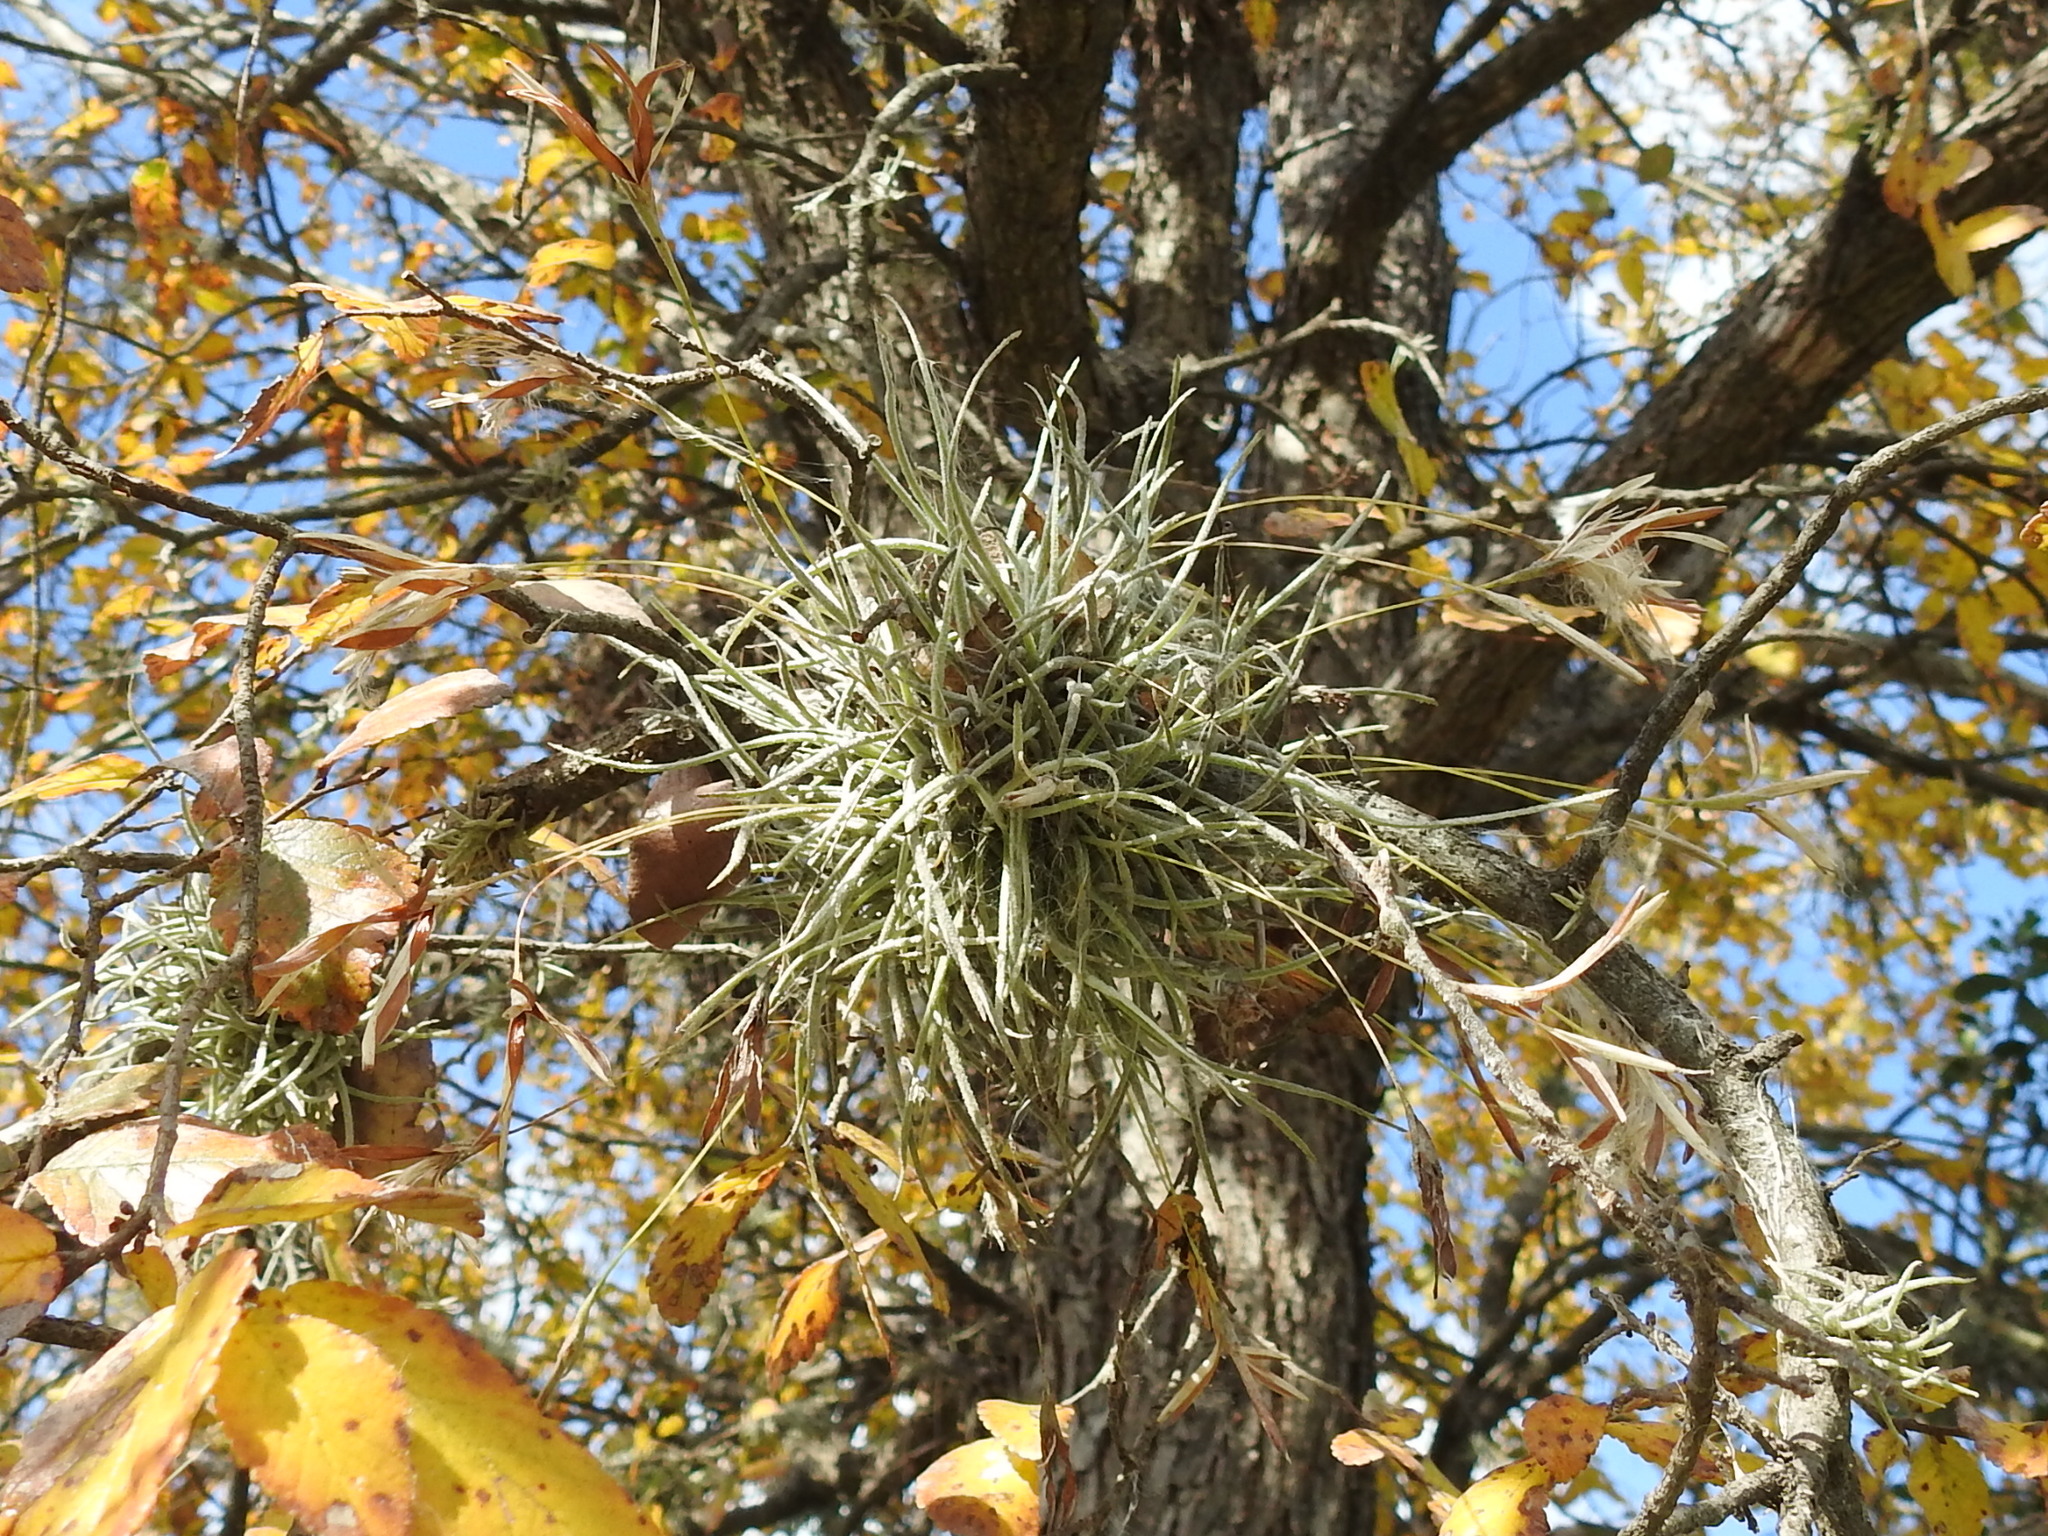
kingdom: Plantae
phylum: Tracheophyta
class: Liliopsida
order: Poales
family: Bromeliaceae
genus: Tillandsia
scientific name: Tillandsia recurvata
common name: Small ballmoss
